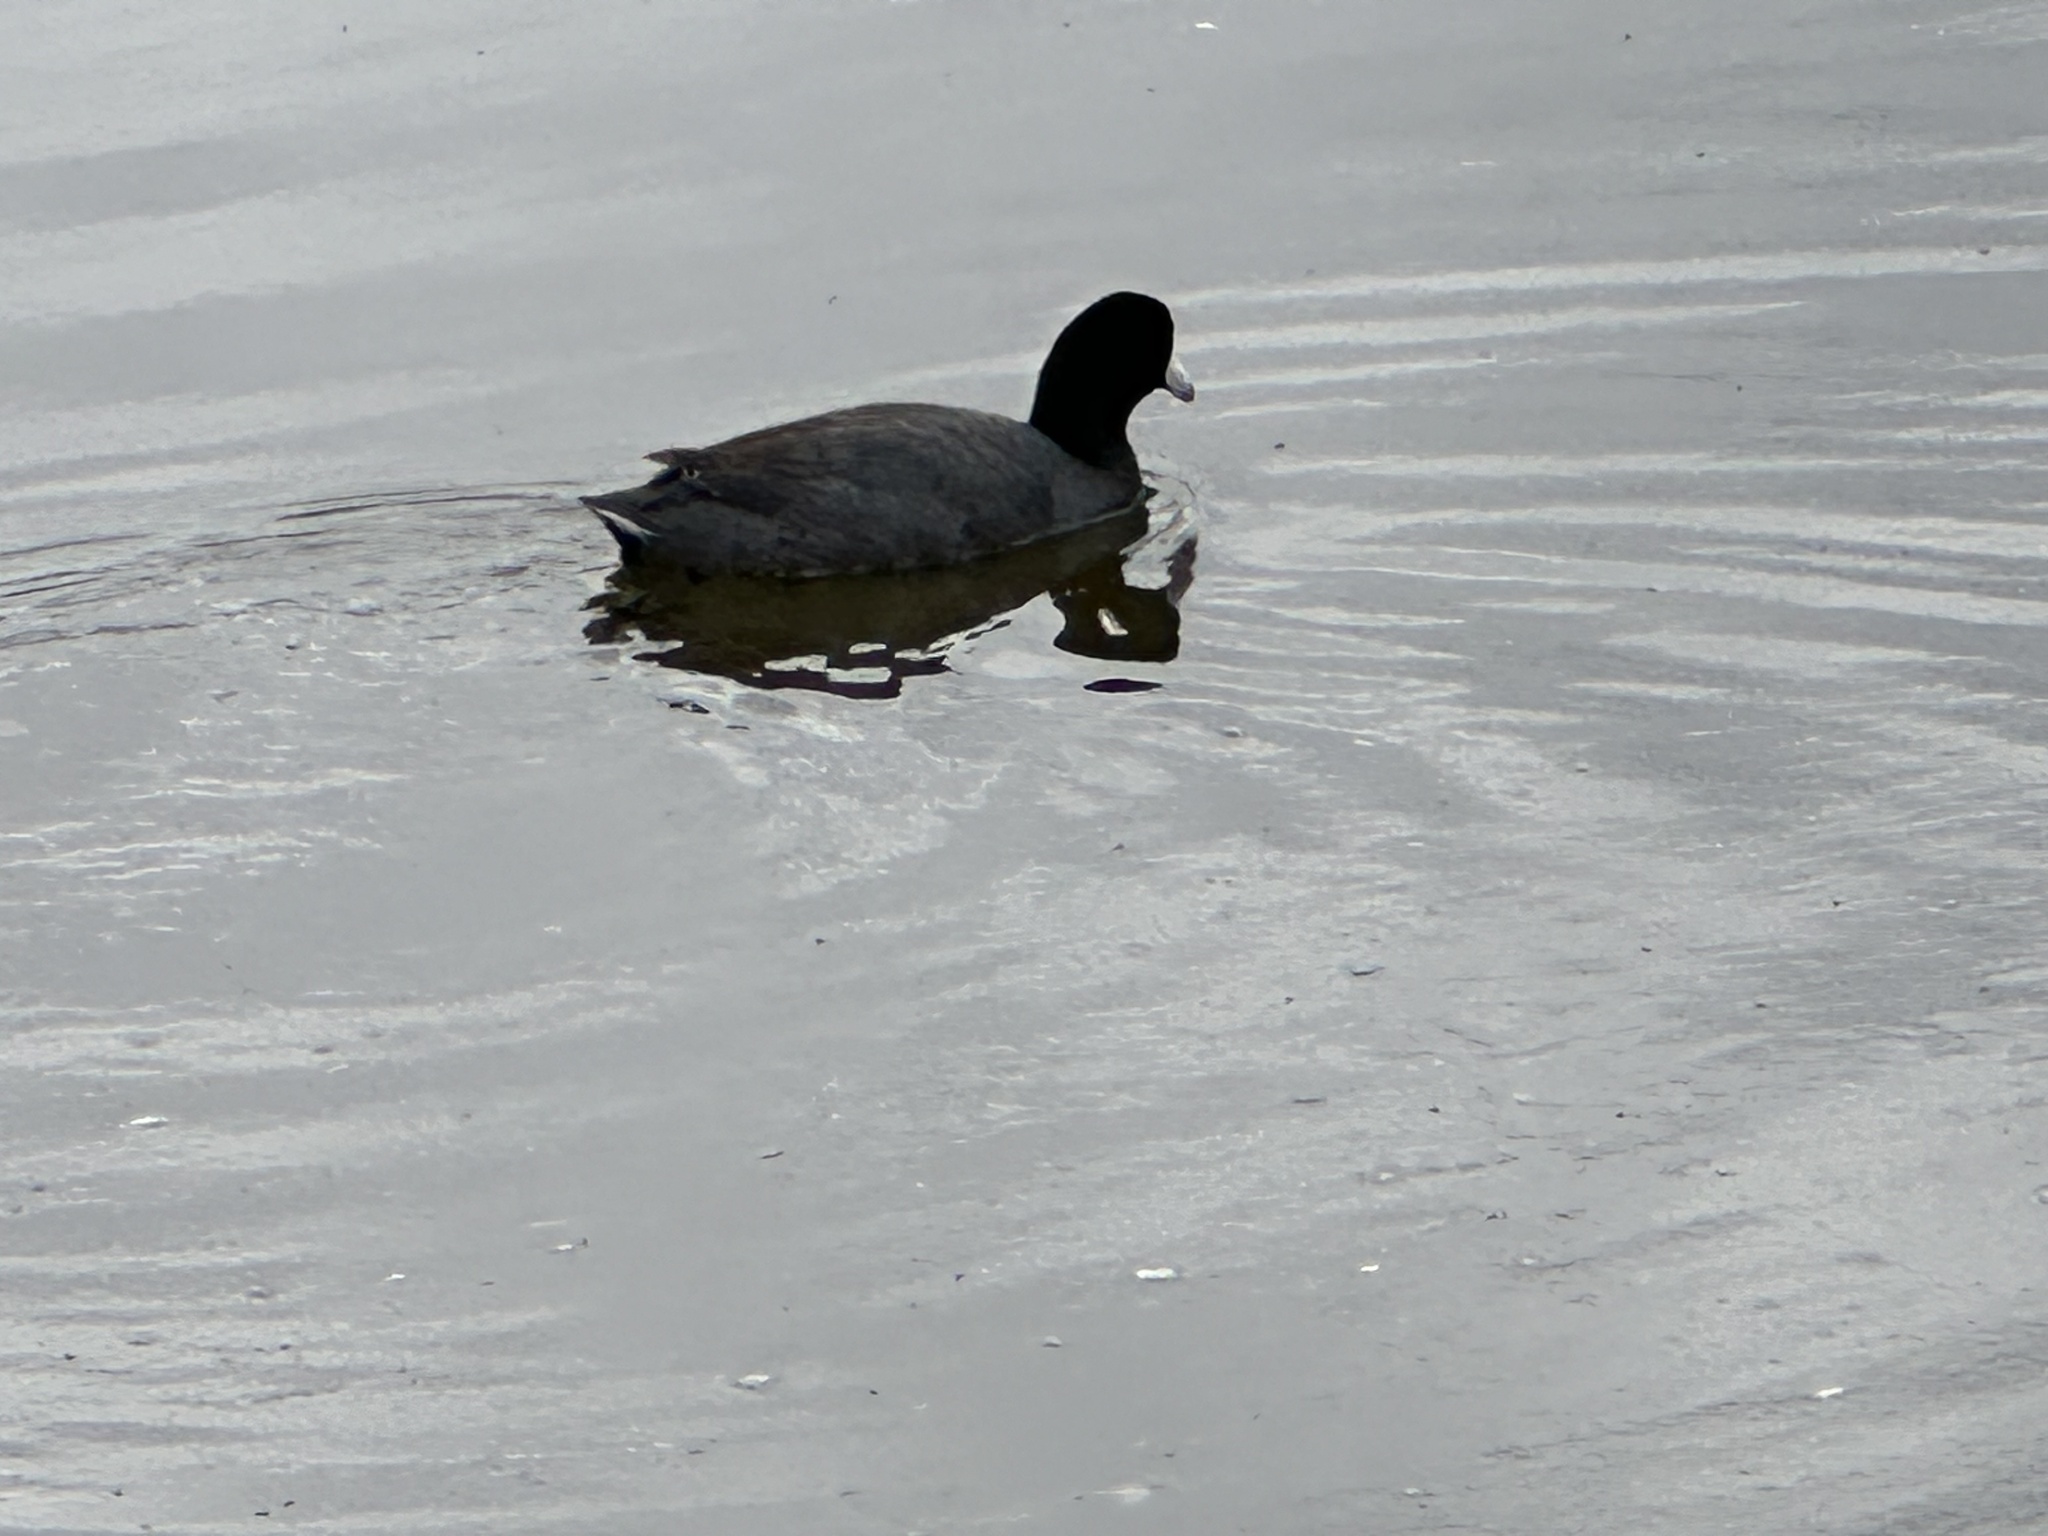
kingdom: Animalia
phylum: Chordata
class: Aves
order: Gruiformes
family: Rallidae
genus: Fulica
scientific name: Fulica americana
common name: American coot
